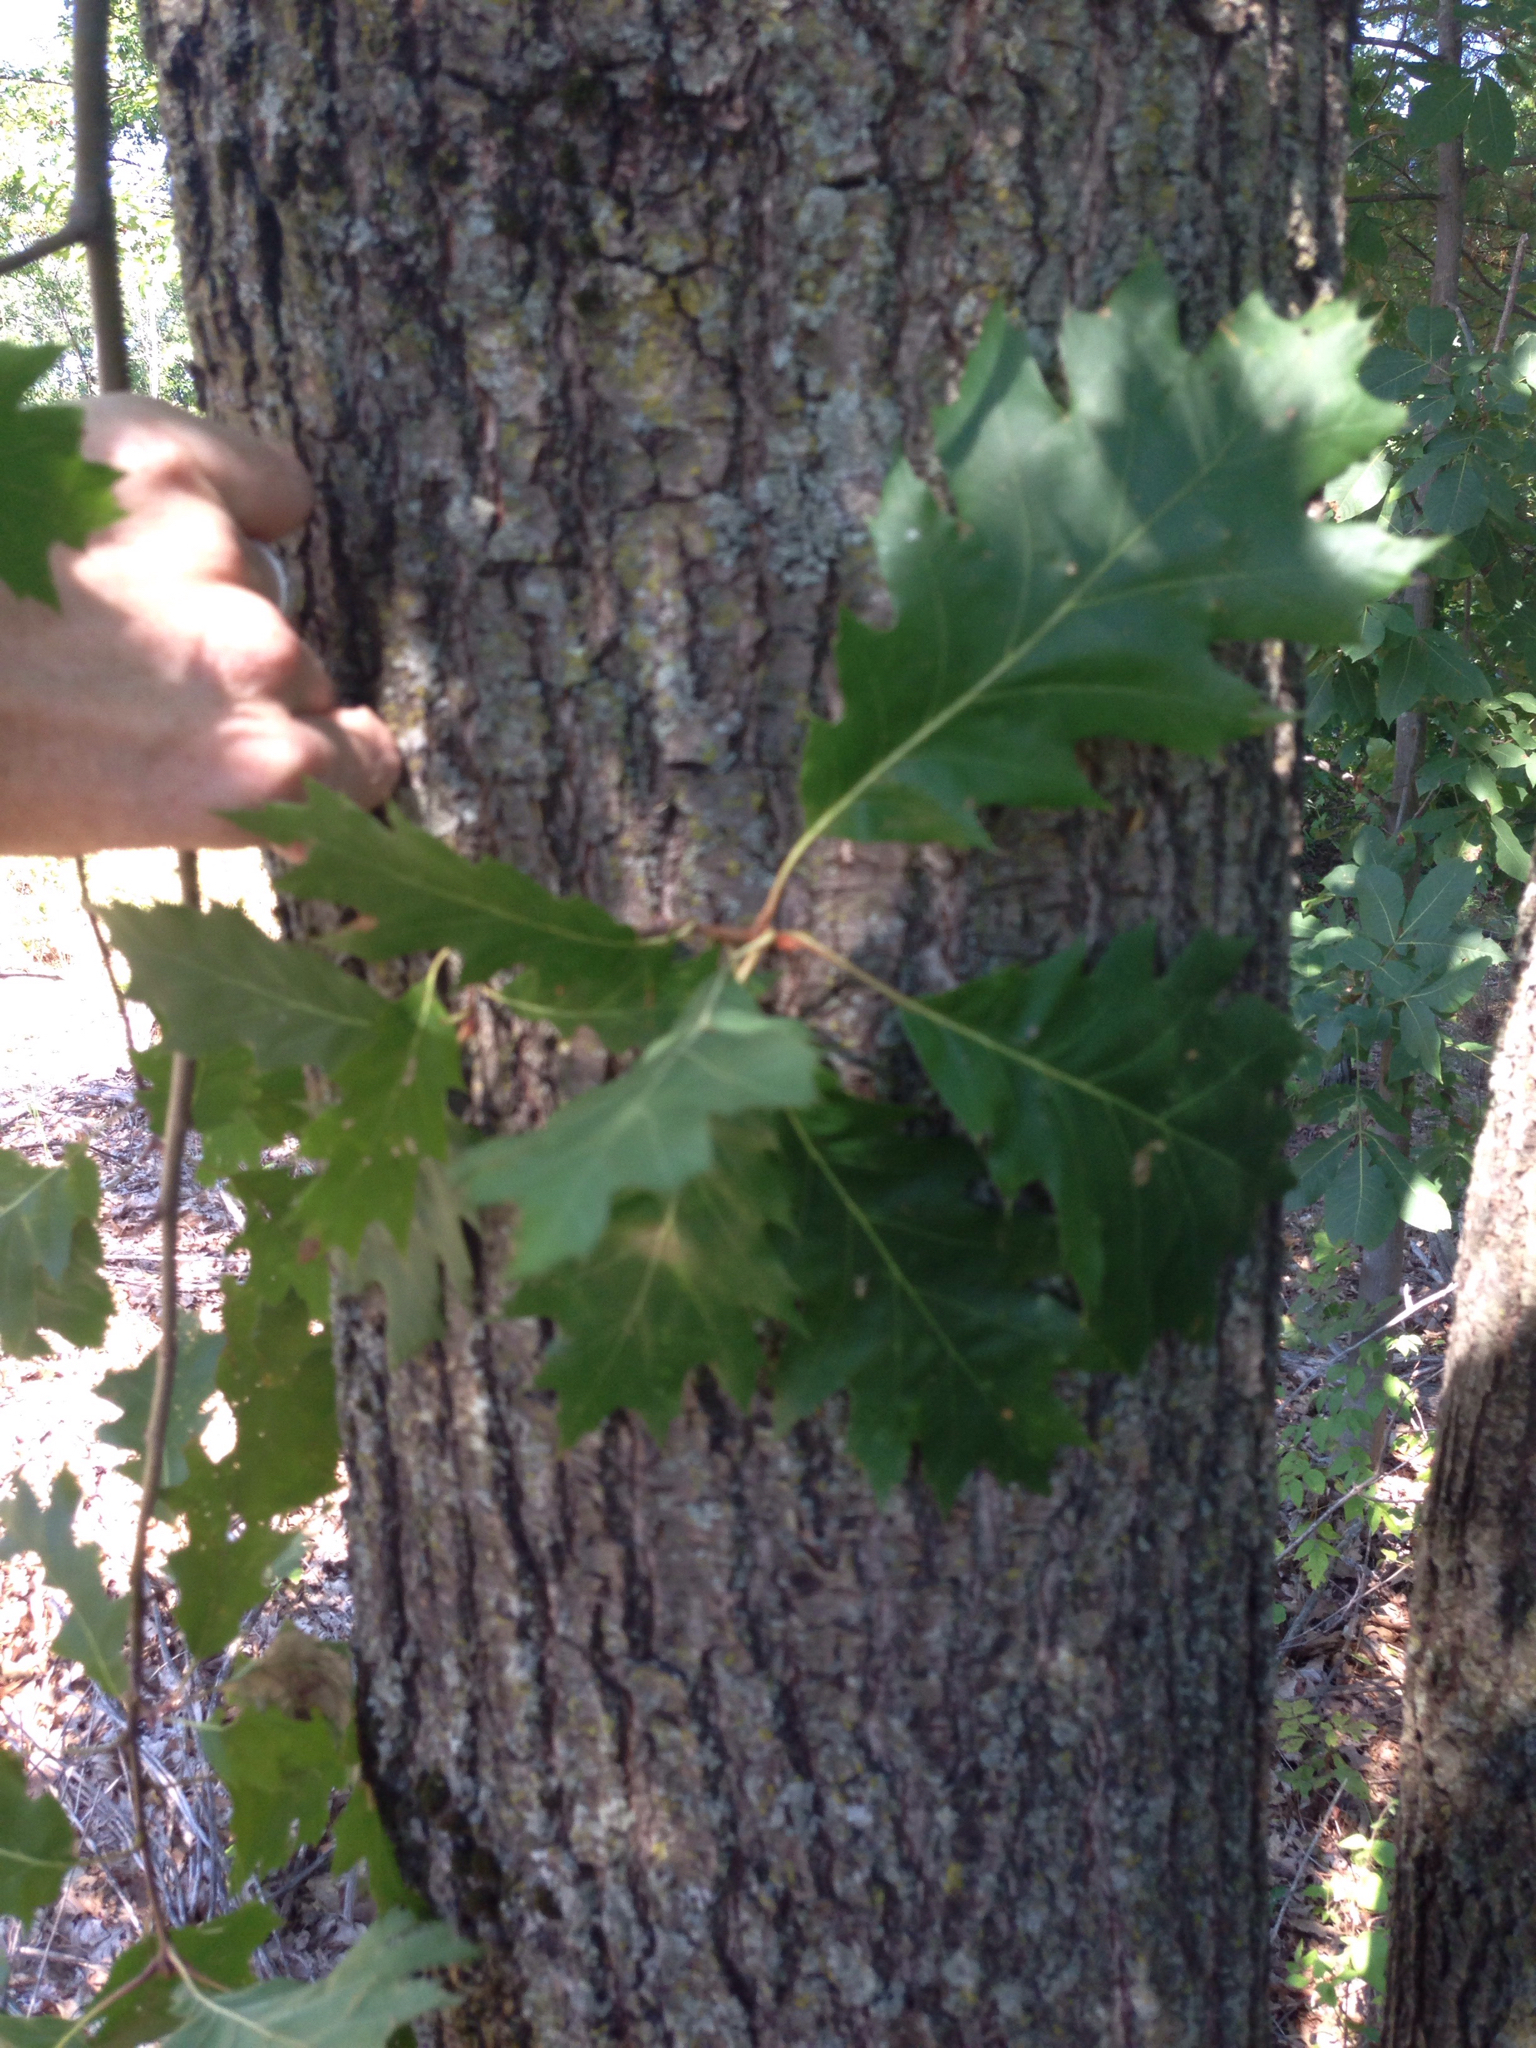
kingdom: Plantae
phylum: Tracheophyta
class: Magnoliopsida
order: Fagales
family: Fagaceae
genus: Quercus
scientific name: Quercus rubra
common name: Red oak
